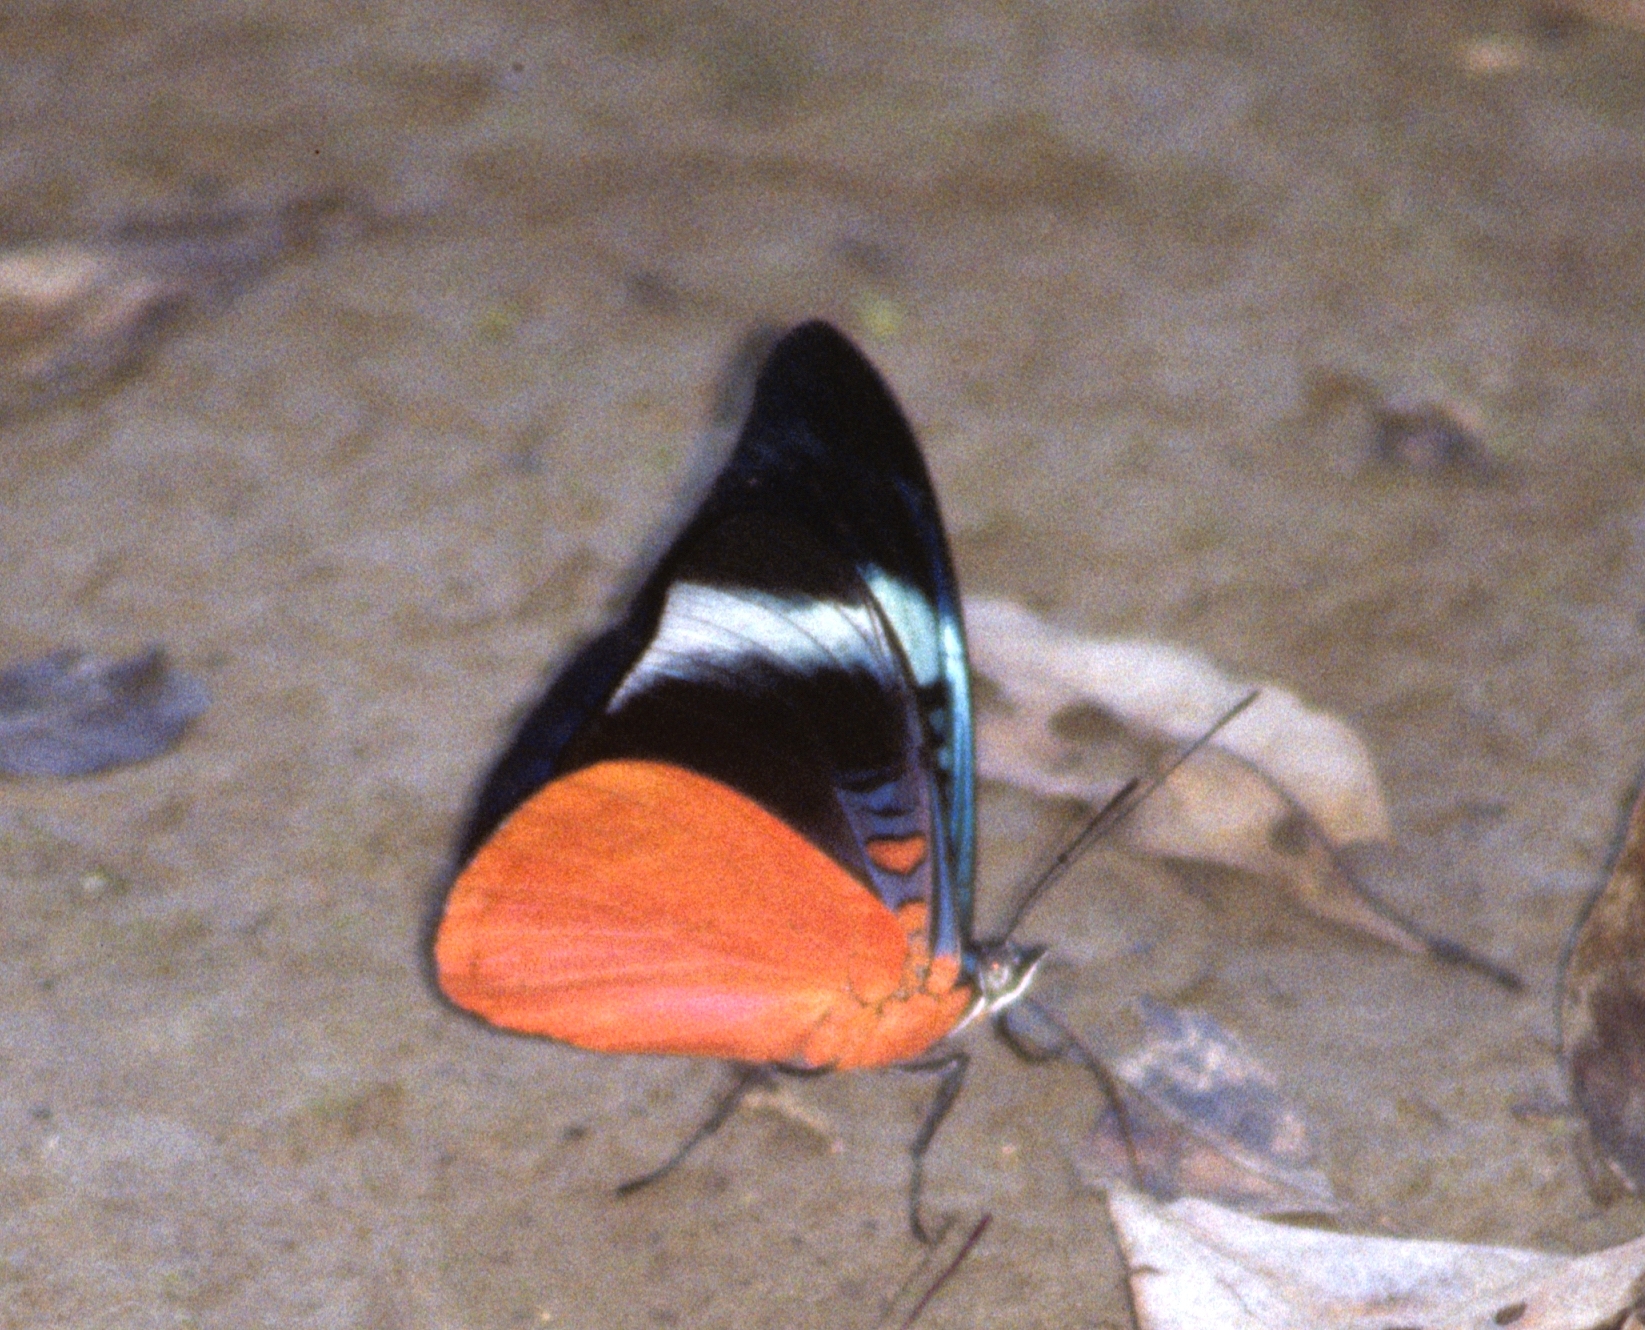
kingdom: Animalia
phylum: Arthropoda
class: Insecta
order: Lepidoptera
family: Nymphalidae
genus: Panacea
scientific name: Panacea prola
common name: Red flasher
